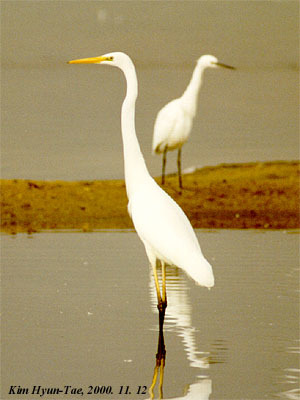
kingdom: Animalia
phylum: Chordata
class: Aves
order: Pelecaniformes
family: Ardeidae
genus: Ardea
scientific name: Ardea alba
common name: Great egret
